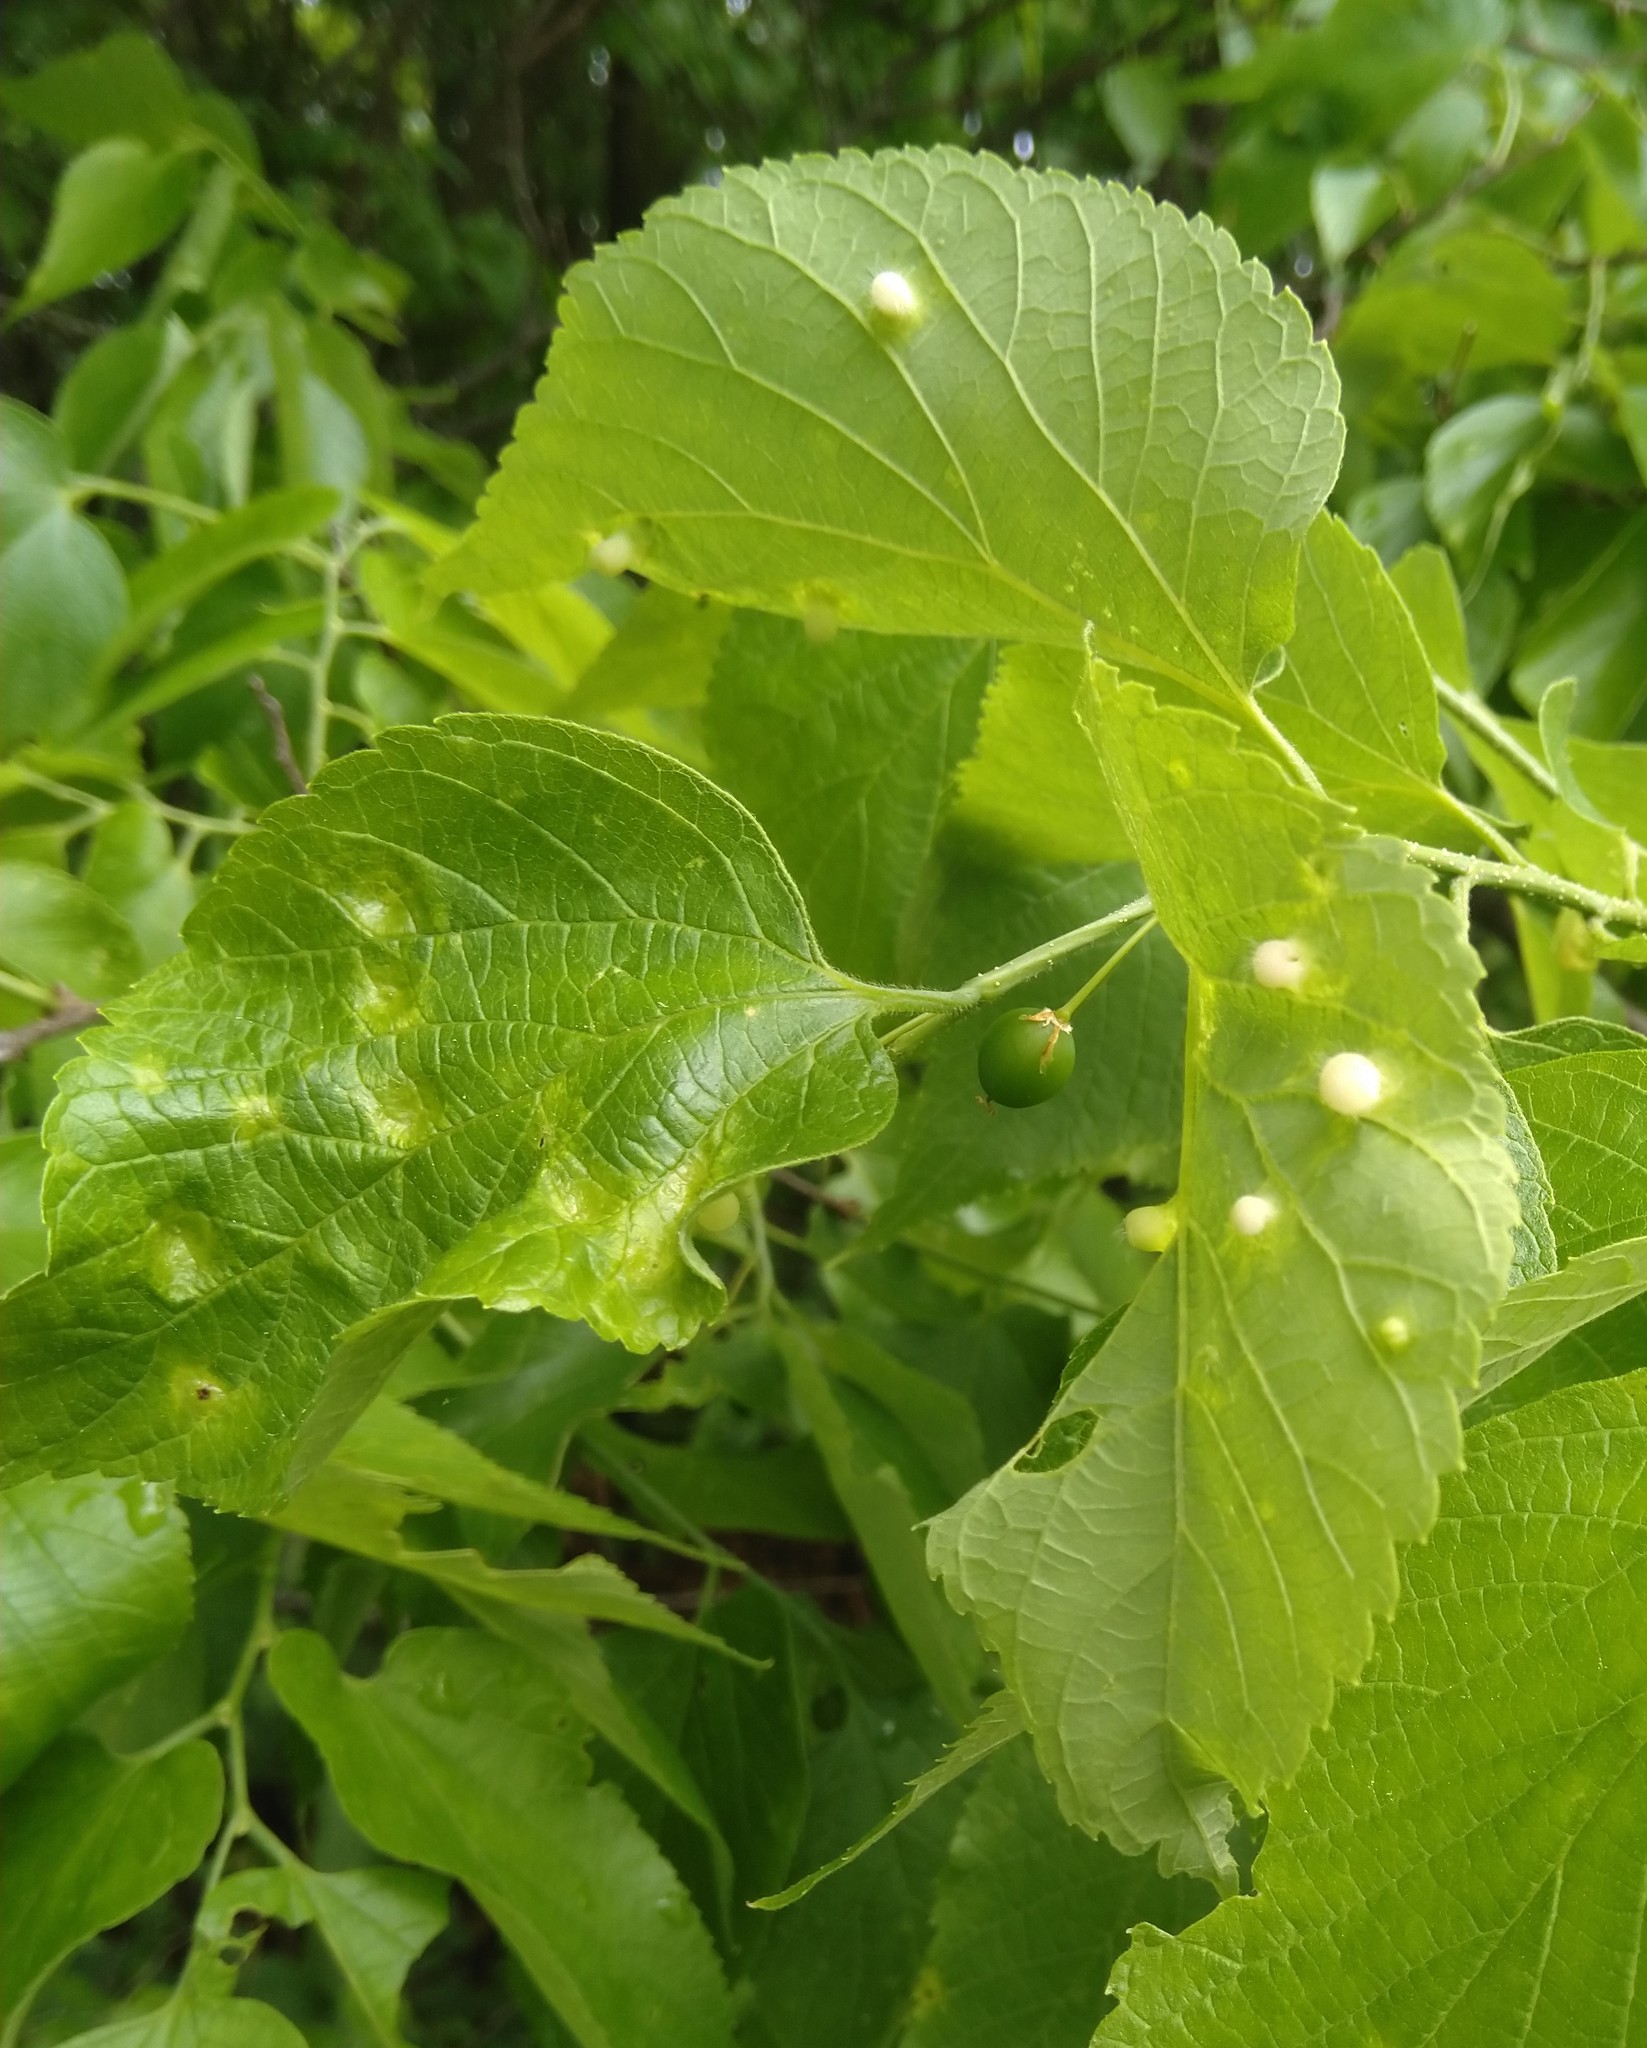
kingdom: Animalia
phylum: Arthropoda
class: Insecta
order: Hemiptera
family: Aphalaridae
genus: Pachypsylla
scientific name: Pachypsylla celtidismamma
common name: Hackberry nipplegall psyllid
